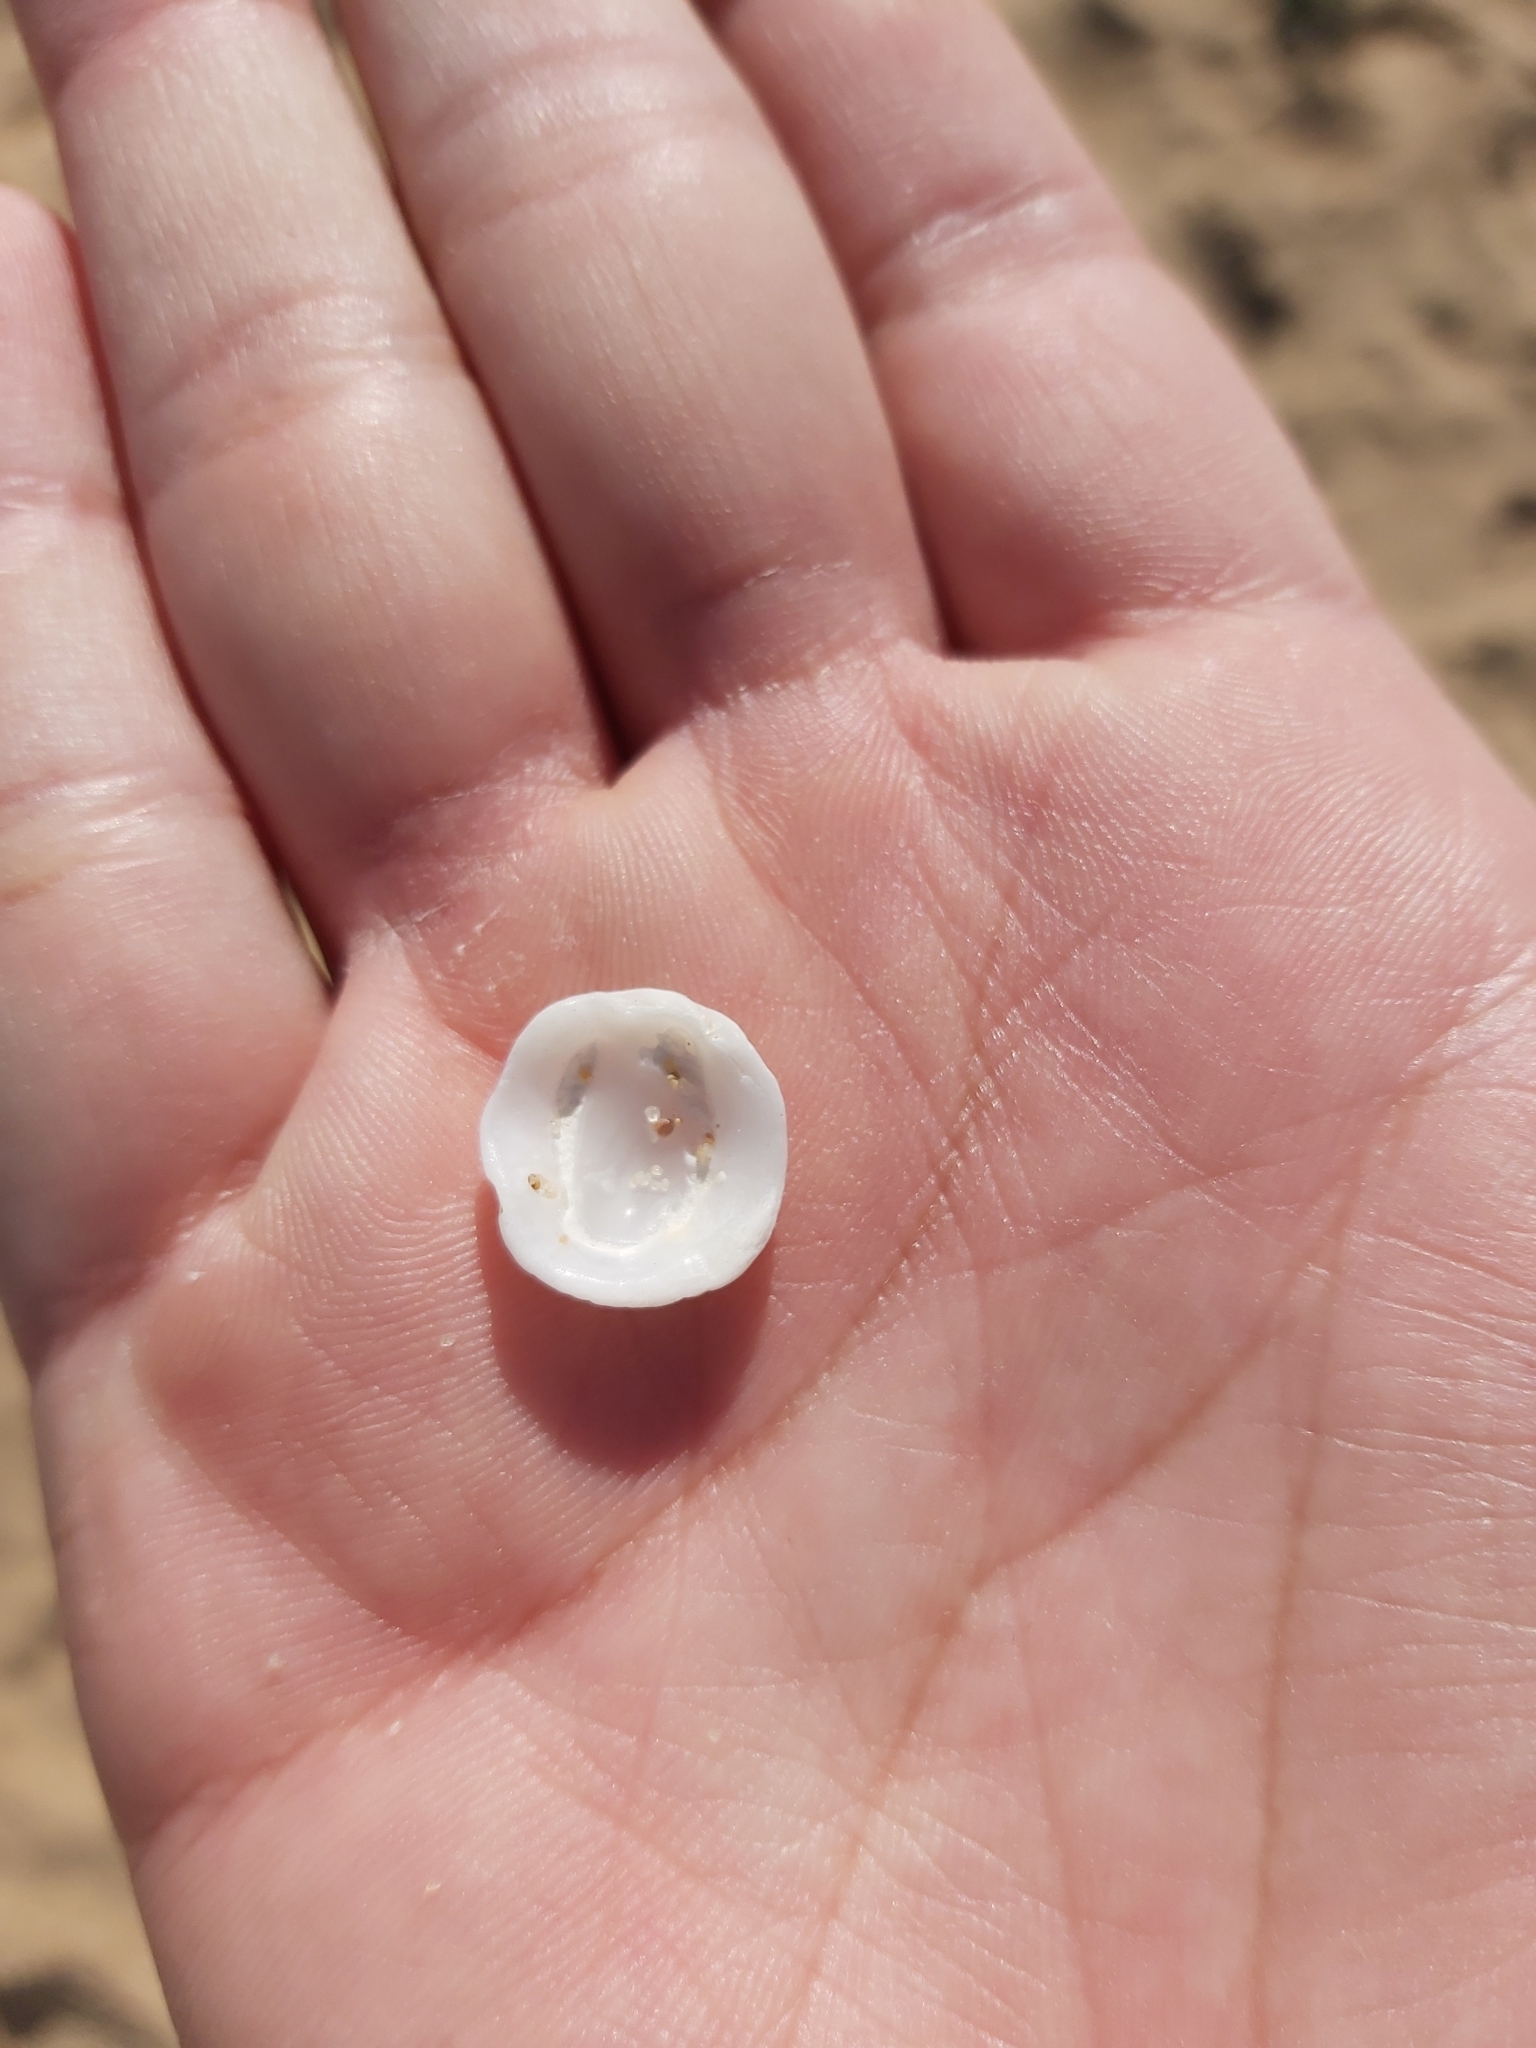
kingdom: Animalia
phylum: Mollusca
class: Gastropoda
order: Ellobiida
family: Trimusculidae
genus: Trimusculus
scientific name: Trimusculus conicus
